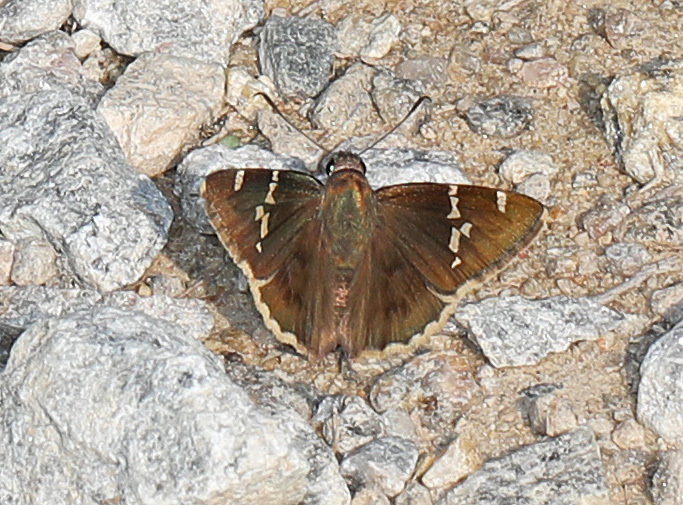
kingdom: Animalia
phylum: Arthropoda
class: Insecta
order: Lepidoptera
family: Hesperiidae
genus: Thorybes
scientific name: Thorybes daunus
